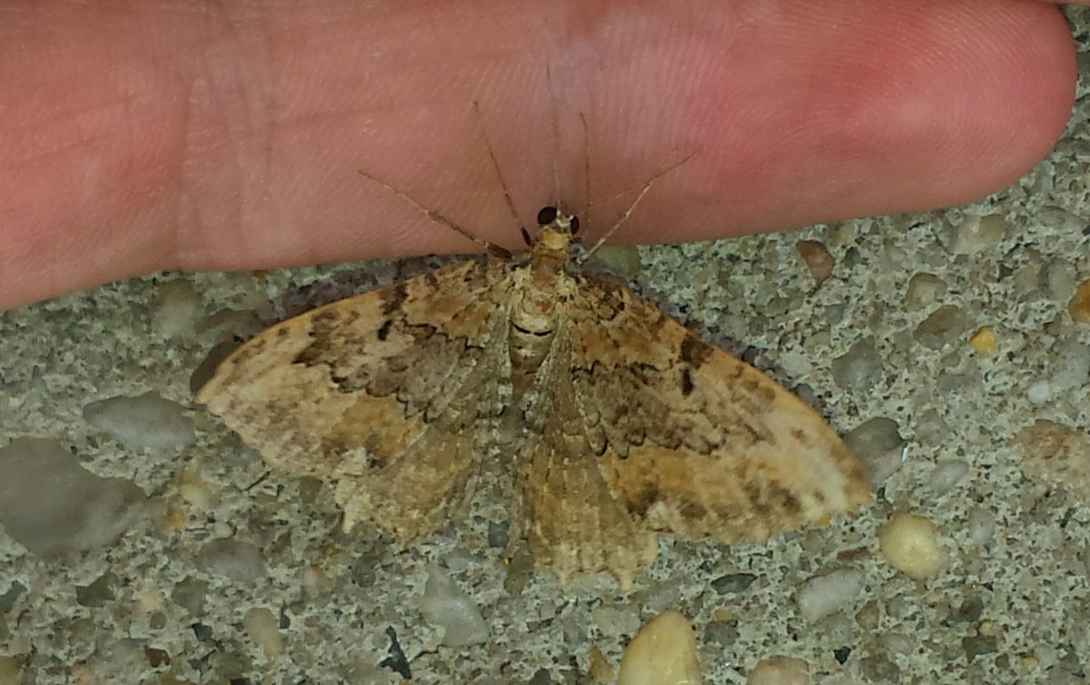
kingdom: Animalia
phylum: Arthropoda
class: Insecta
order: Lepidoptera
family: Geometridae
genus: Rheumaptera
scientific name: Rheumaptera
